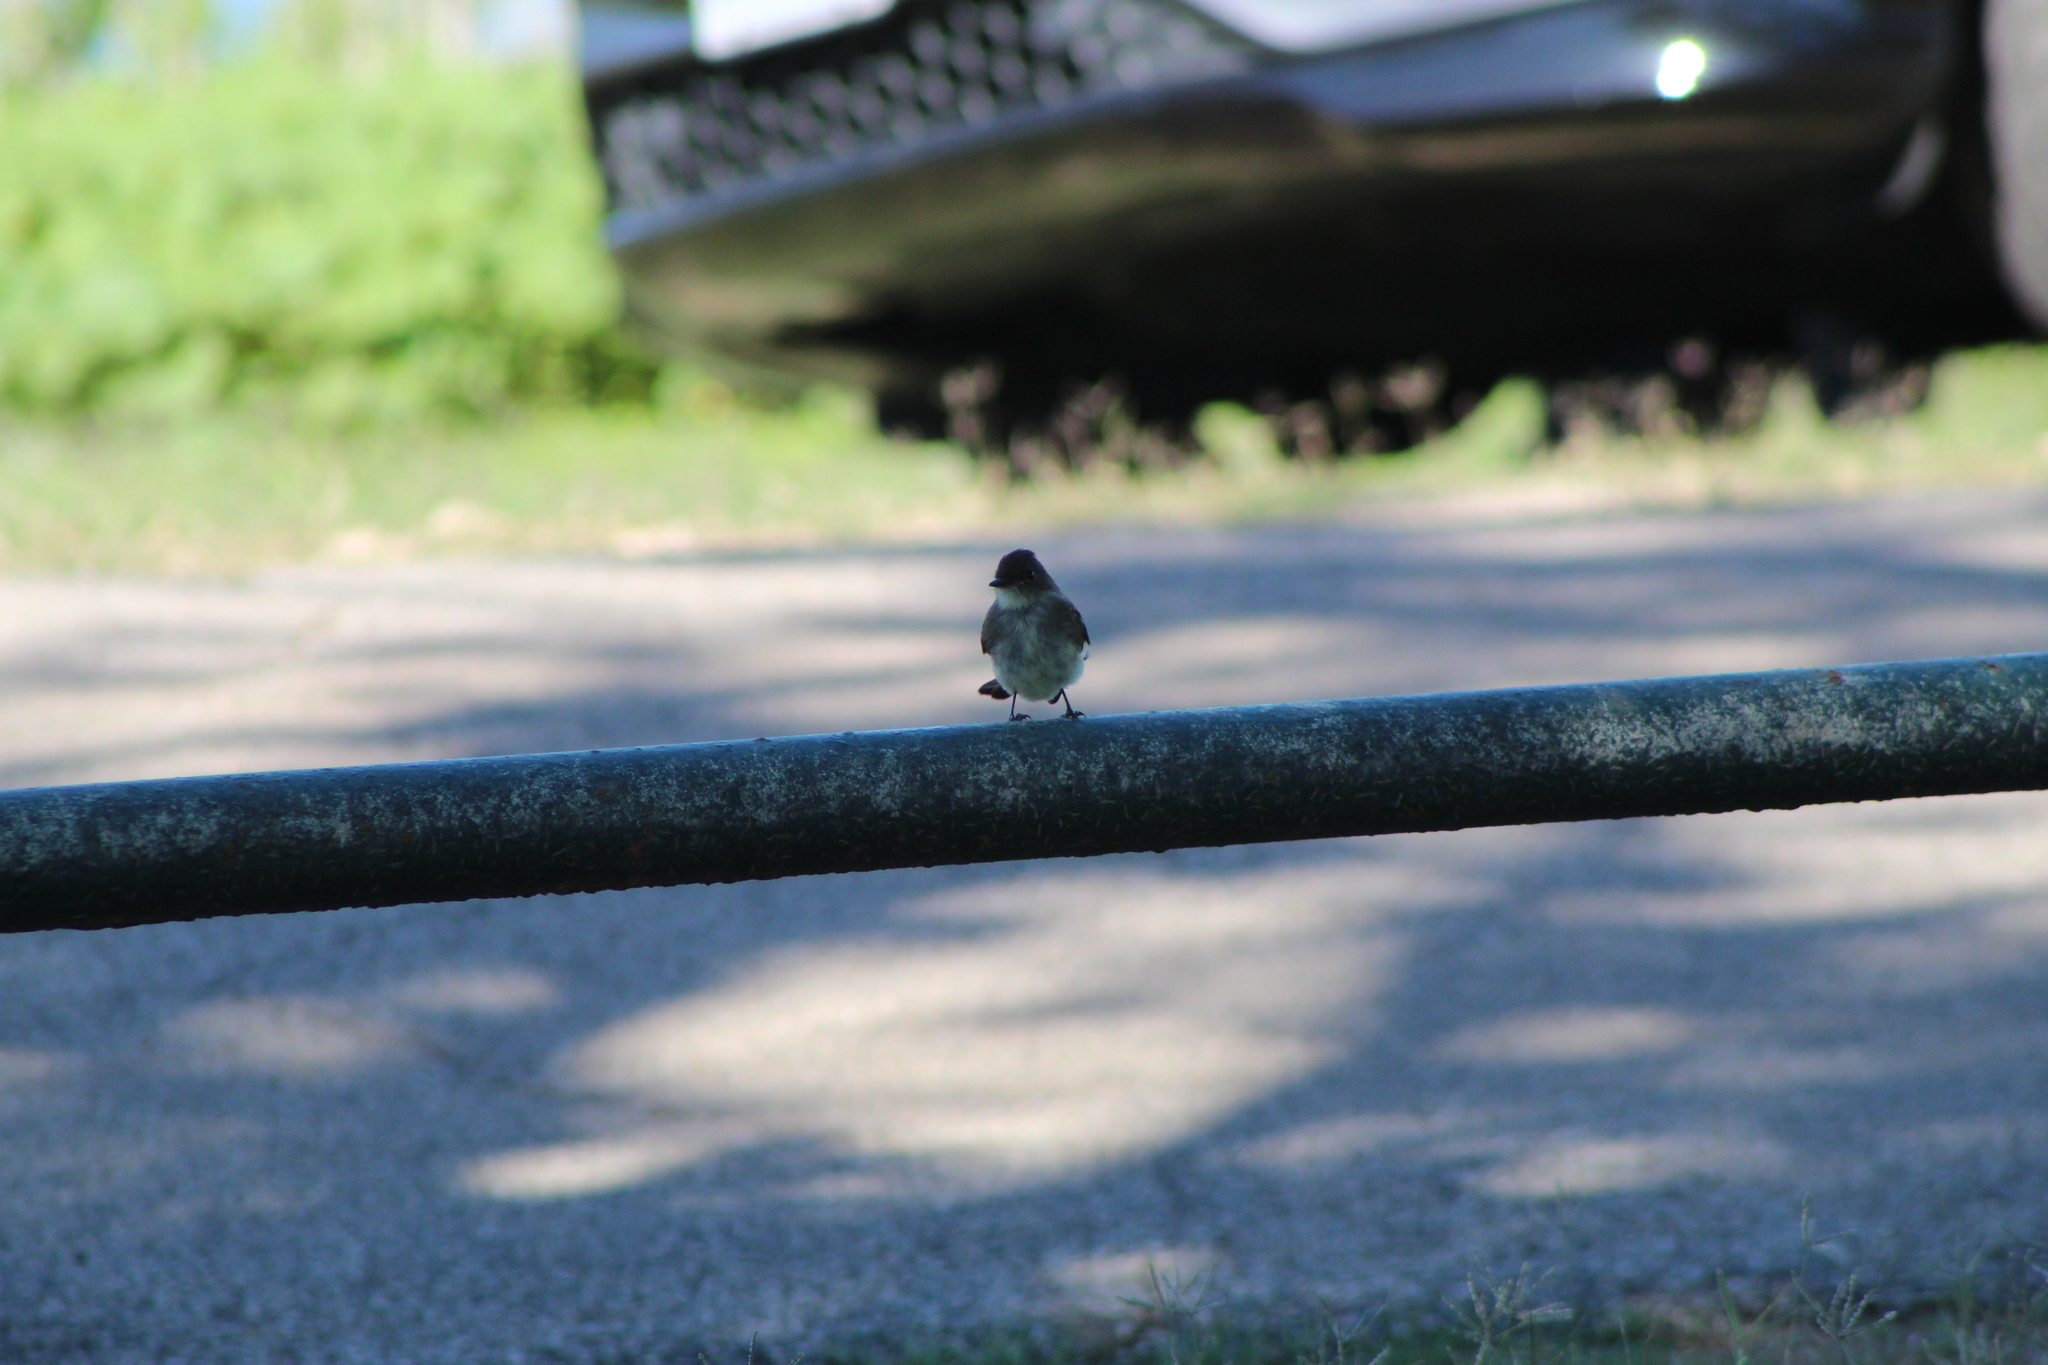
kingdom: Animalia
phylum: Chordata
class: Aves
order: Passeriformes
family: Tyrannidae
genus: Sayornis
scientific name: Sayornis phoebe
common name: Eastern phoebe
